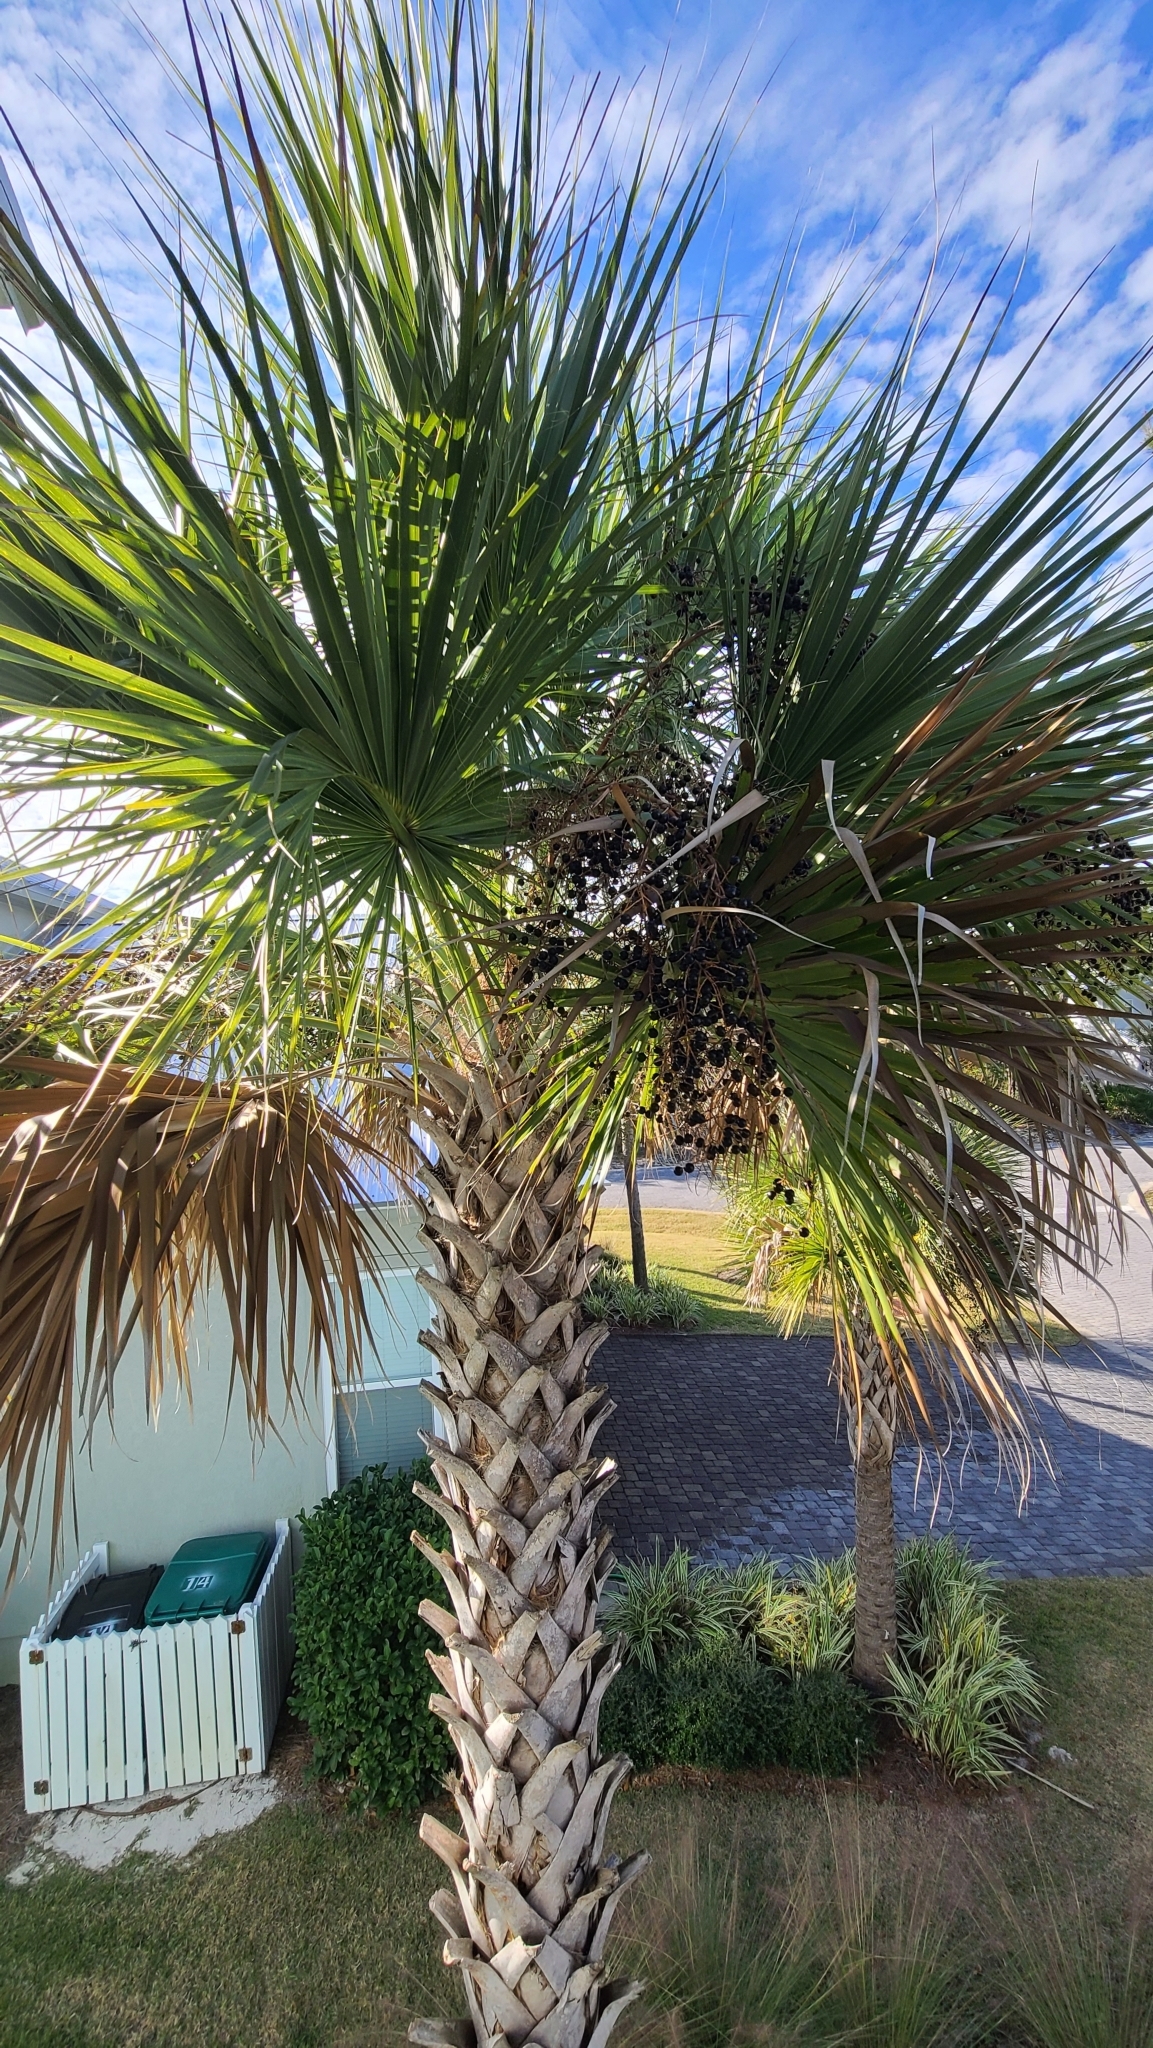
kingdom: Plantae
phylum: Tracheophyta
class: Liliopsida
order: Arecales
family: Arecaceae
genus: Sabal
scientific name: Sabal palmetto
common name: Blue palmetto
